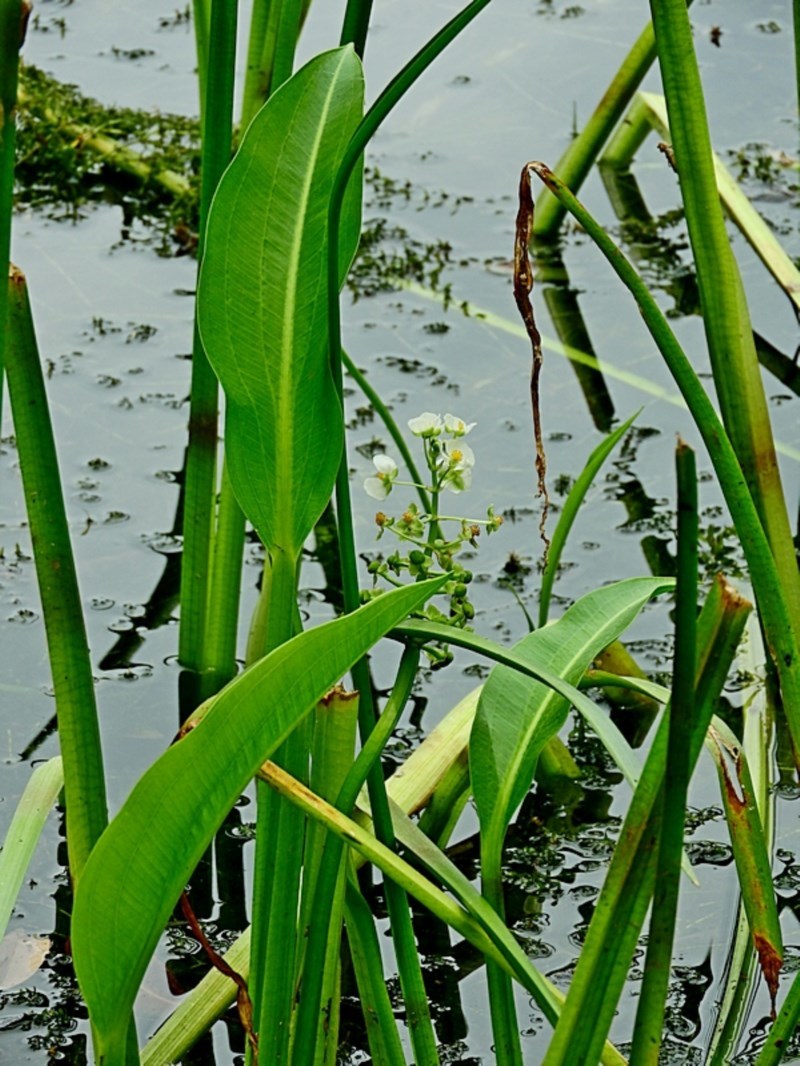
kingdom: Plantae
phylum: Tracheophyta
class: Liliopsida
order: Alismatales
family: Alismataceae
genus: Sagittaria
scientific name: Sagittaria platyphylla
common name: Broad-leaf arrowhead
